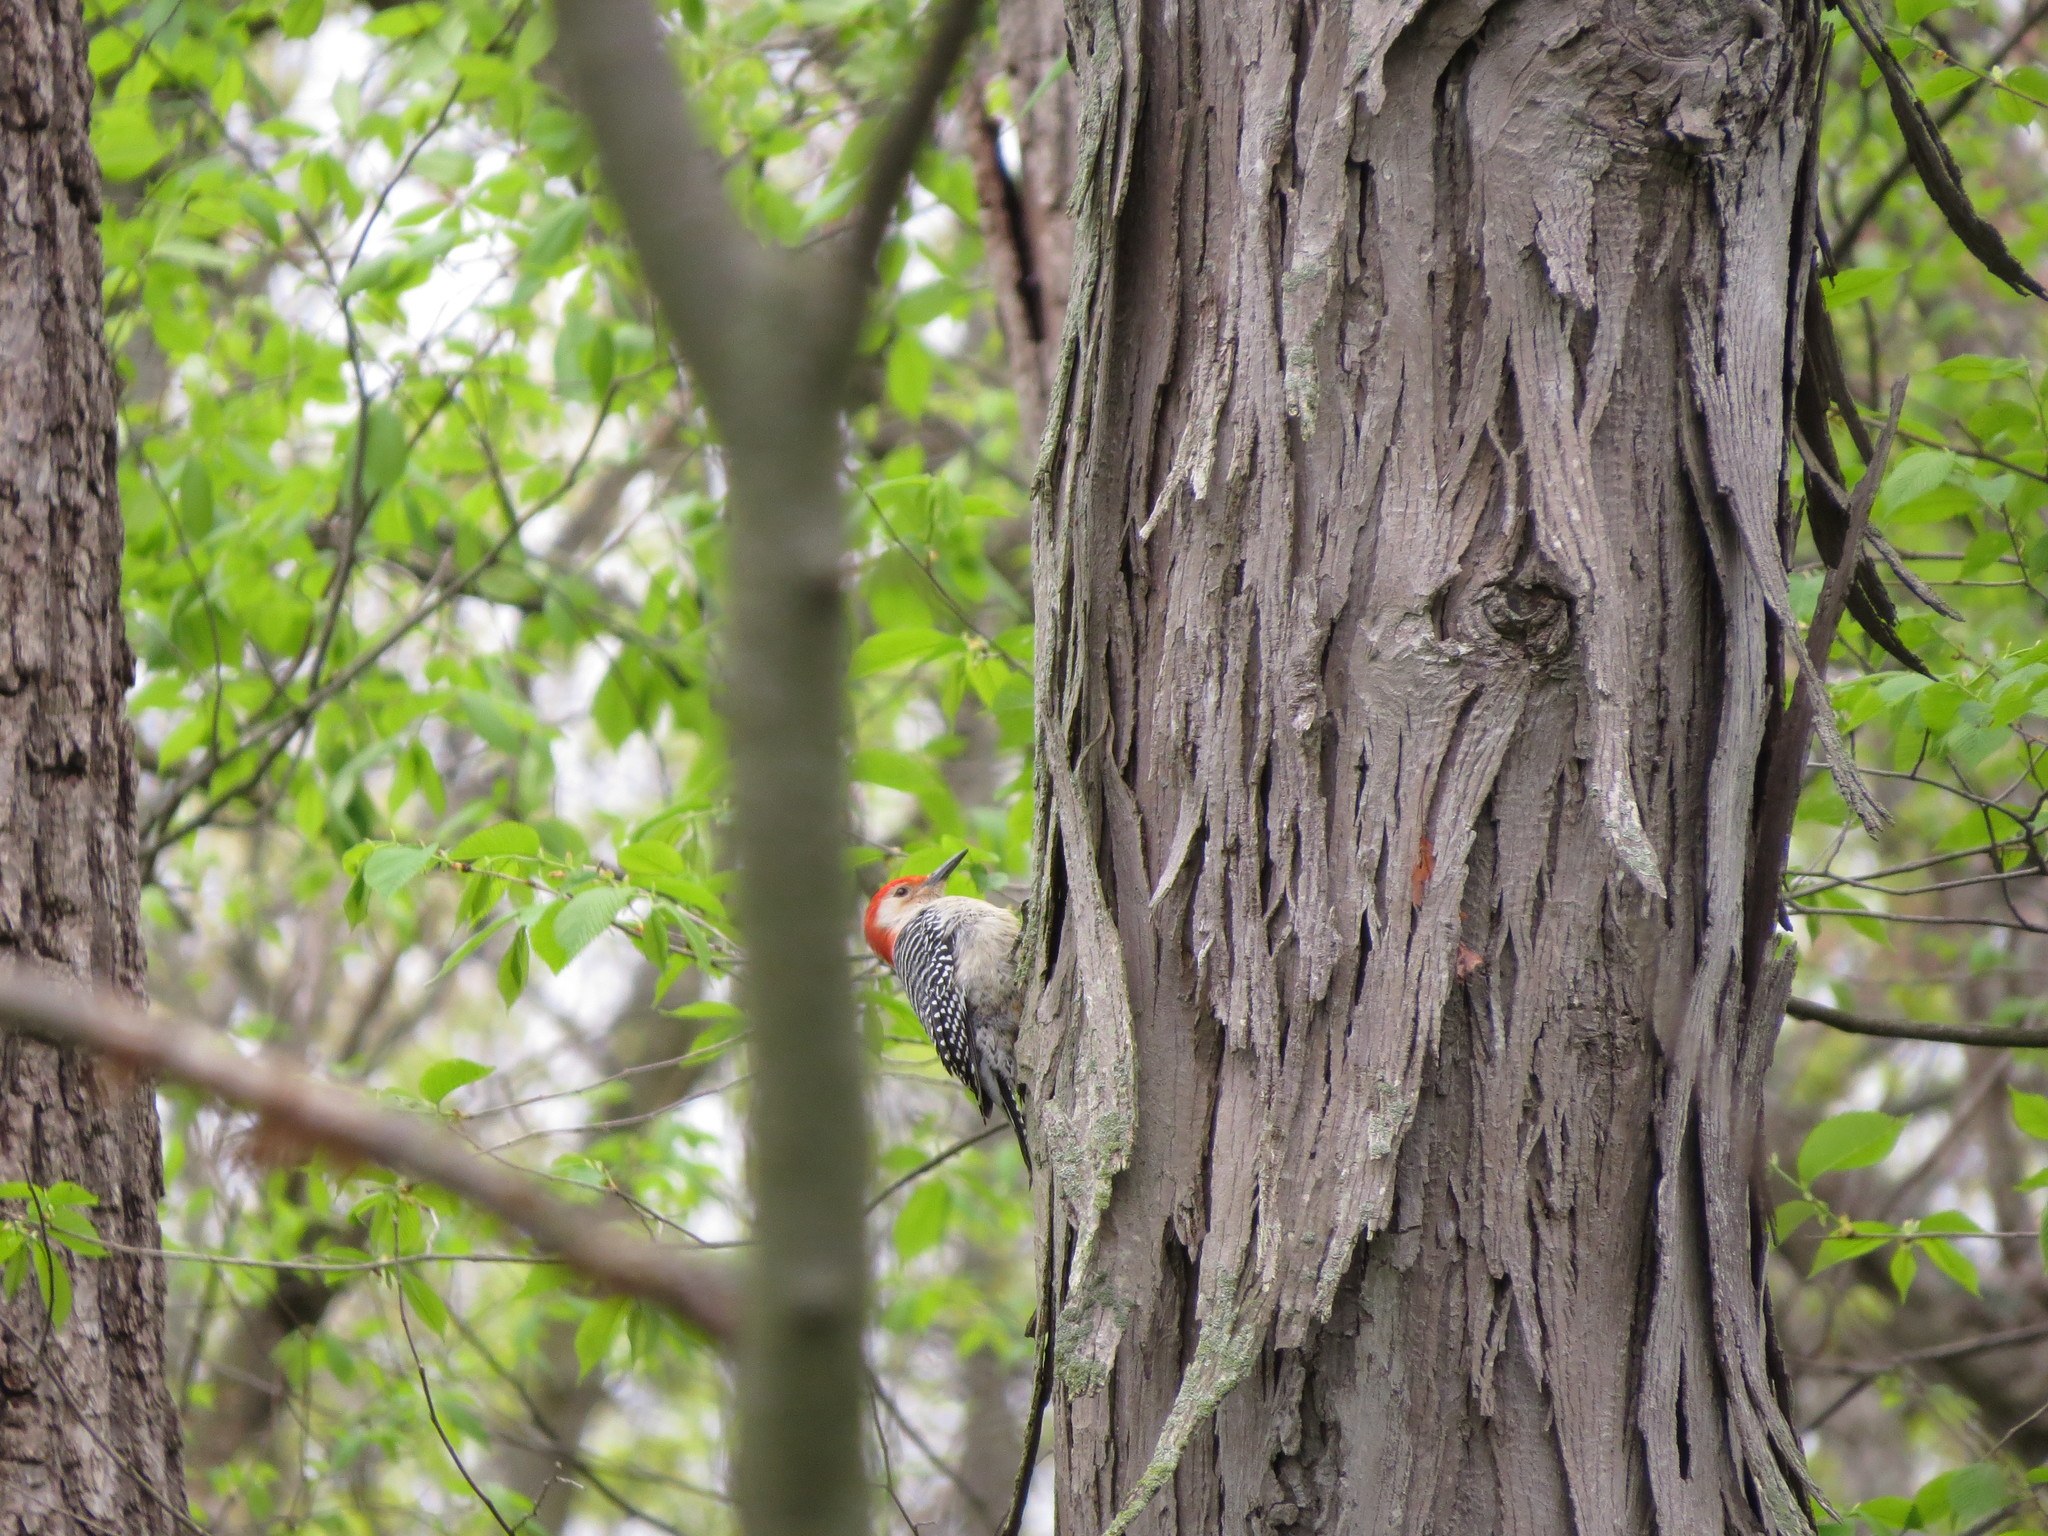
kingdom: Animalia
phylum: Chordata
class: Aves
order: Piciformes
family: Picidae
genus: Melanerpes
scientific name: Melanerpes carolinus
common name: Red-bellied woodpecker
